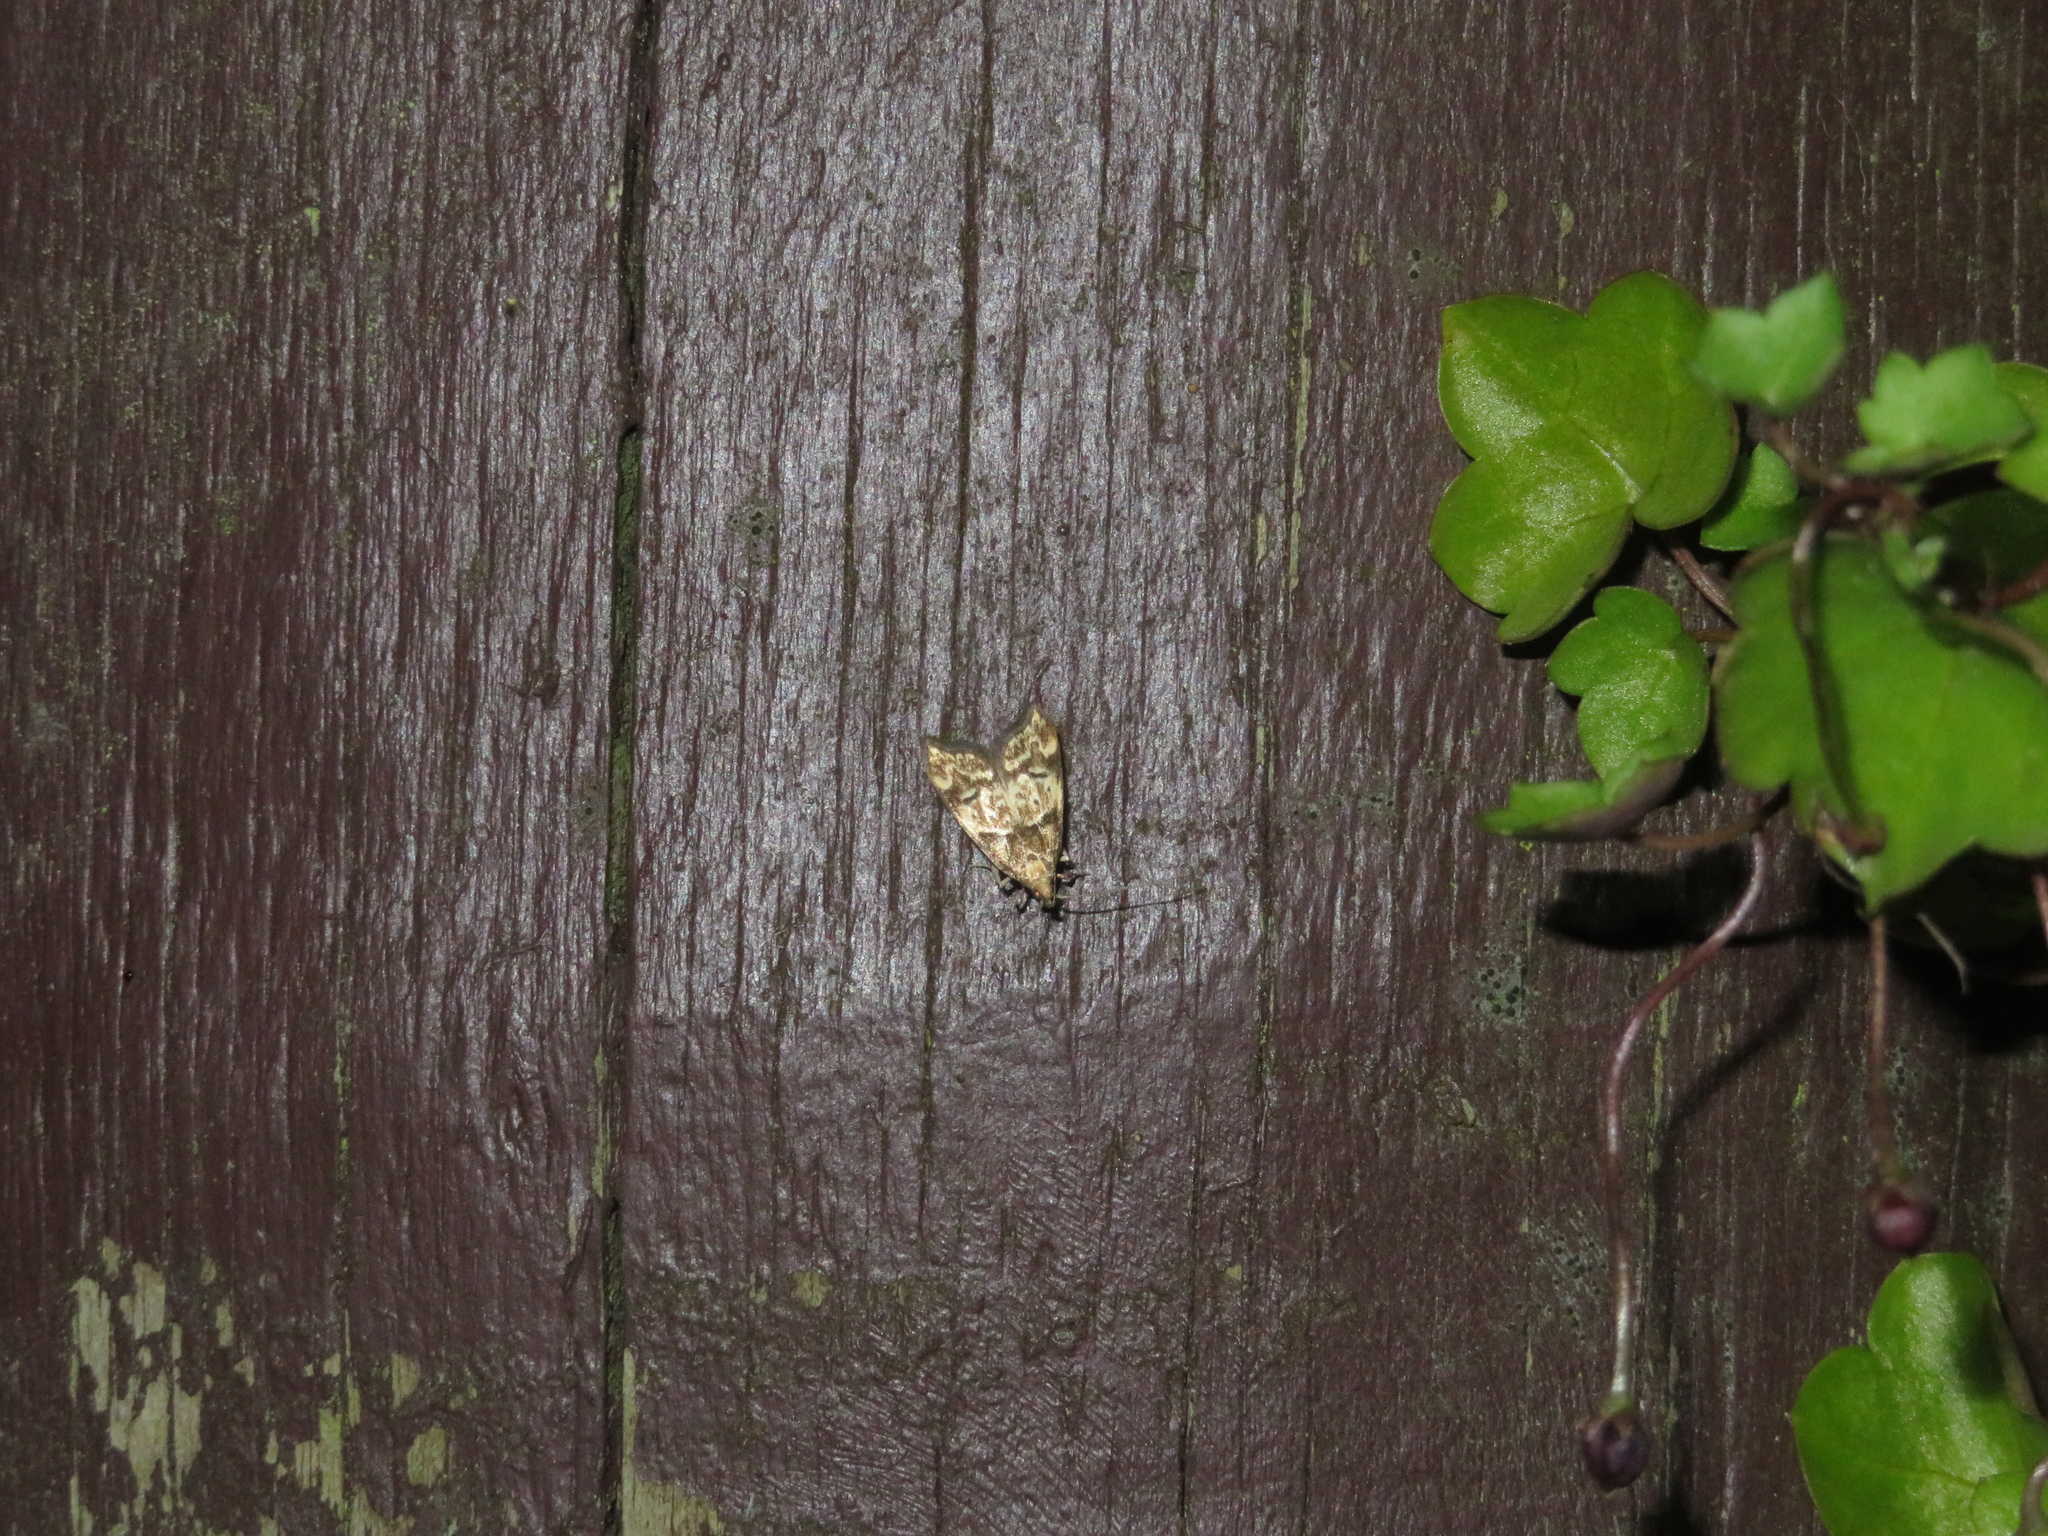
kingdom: Animalia
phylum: Arthropoda
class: Insecta
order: Lepidoptera
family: Oecophoridae
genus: Gymnobathra
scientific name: Gymnobathra hamatella
